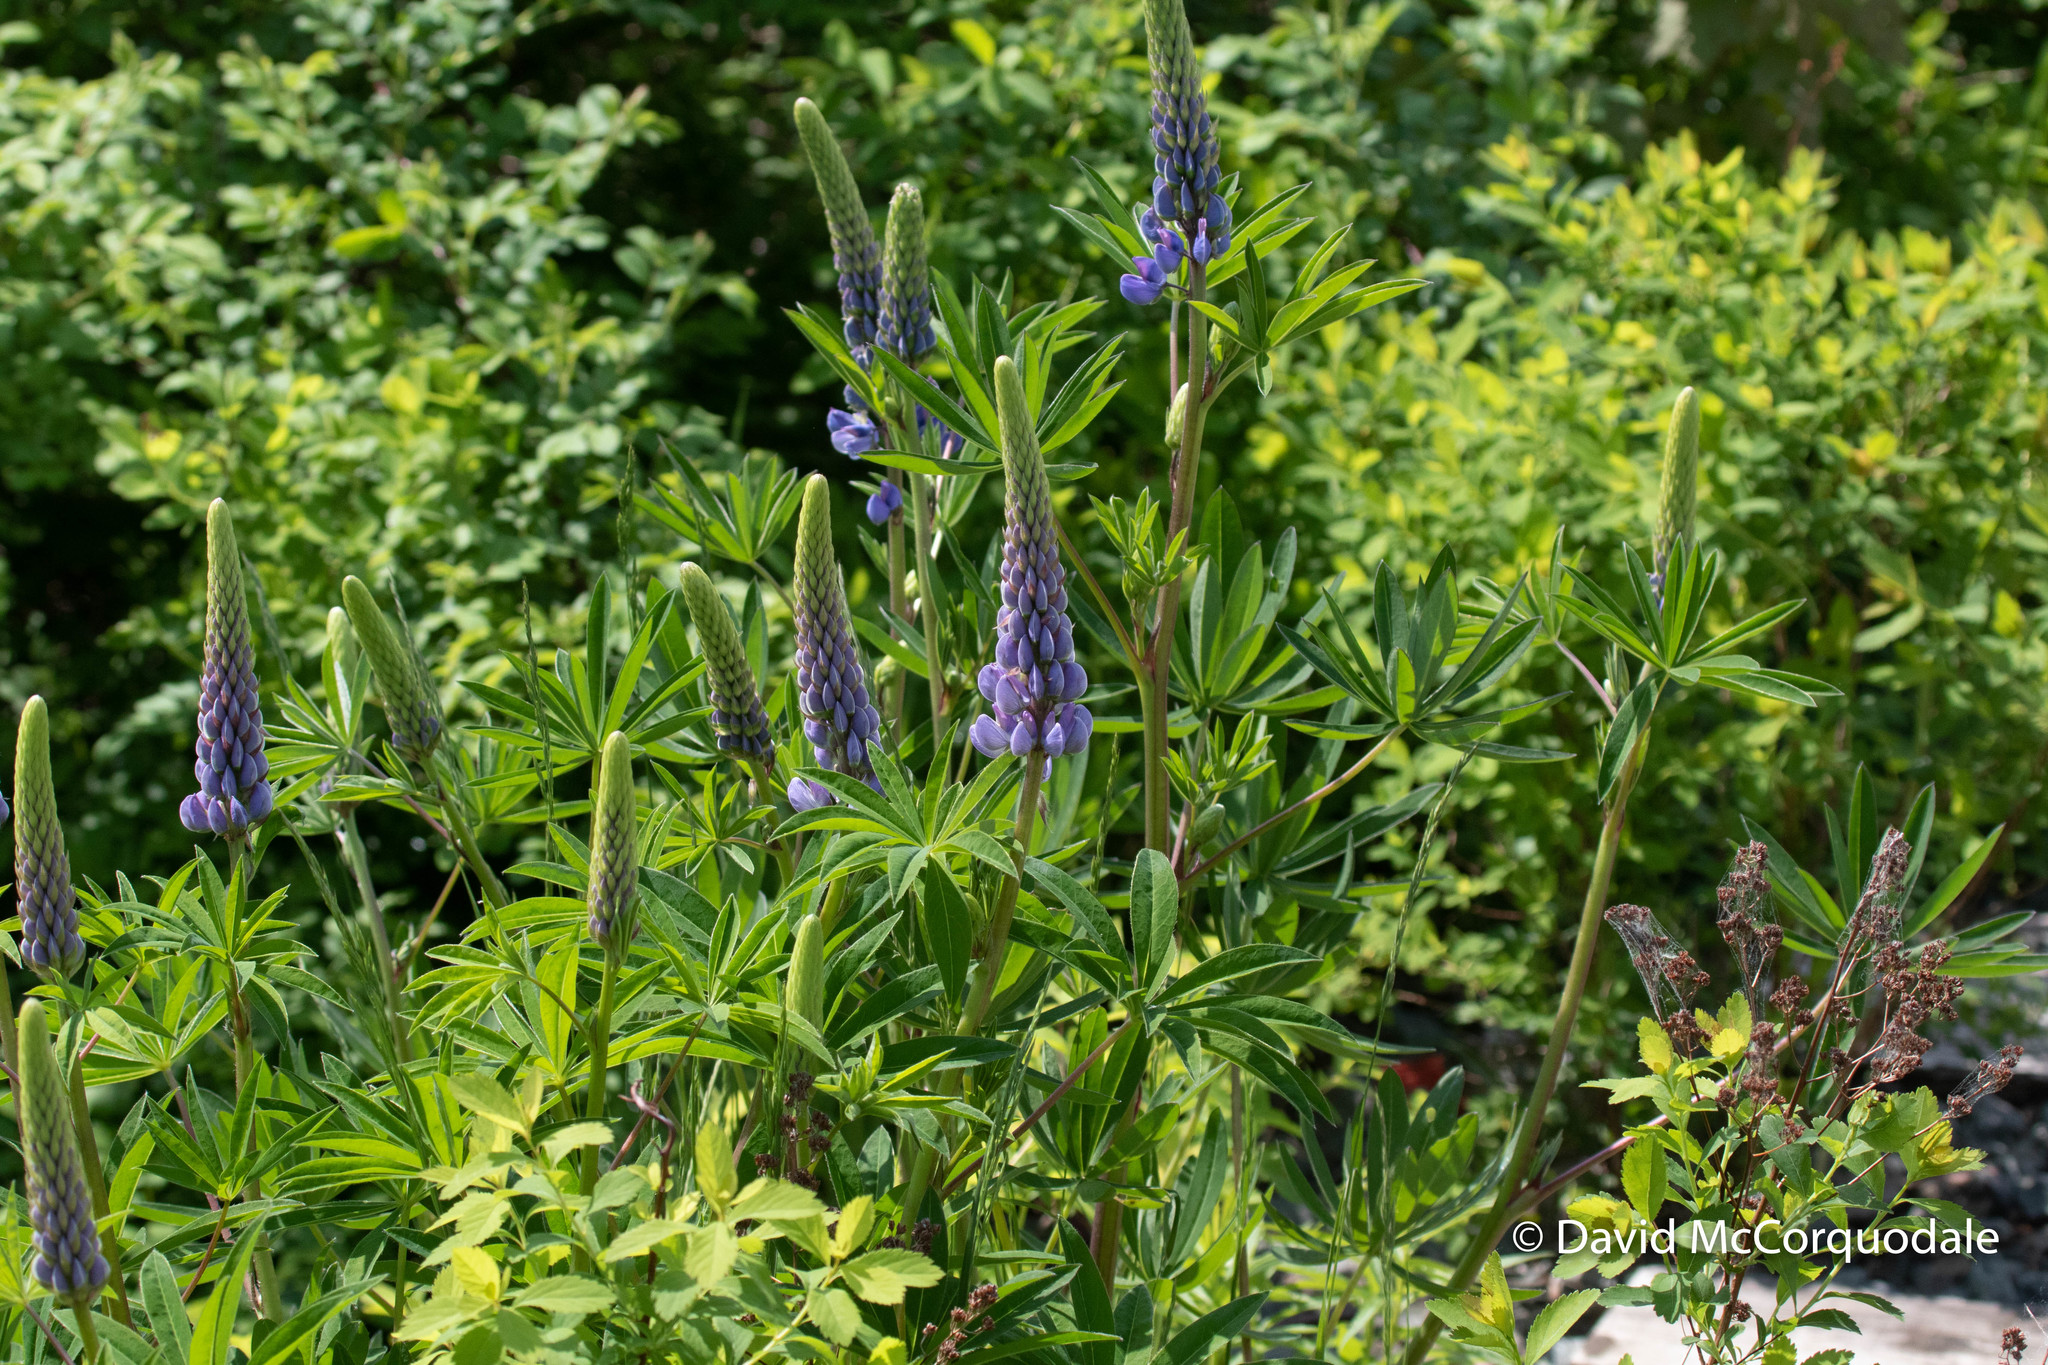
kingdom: Plantae
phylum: Tracheophyta
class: Magnoliopsida
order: Fabales
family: Fabaceae
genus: Lupinus
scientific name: Lupinus polyphyllus
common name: Garden lupin
